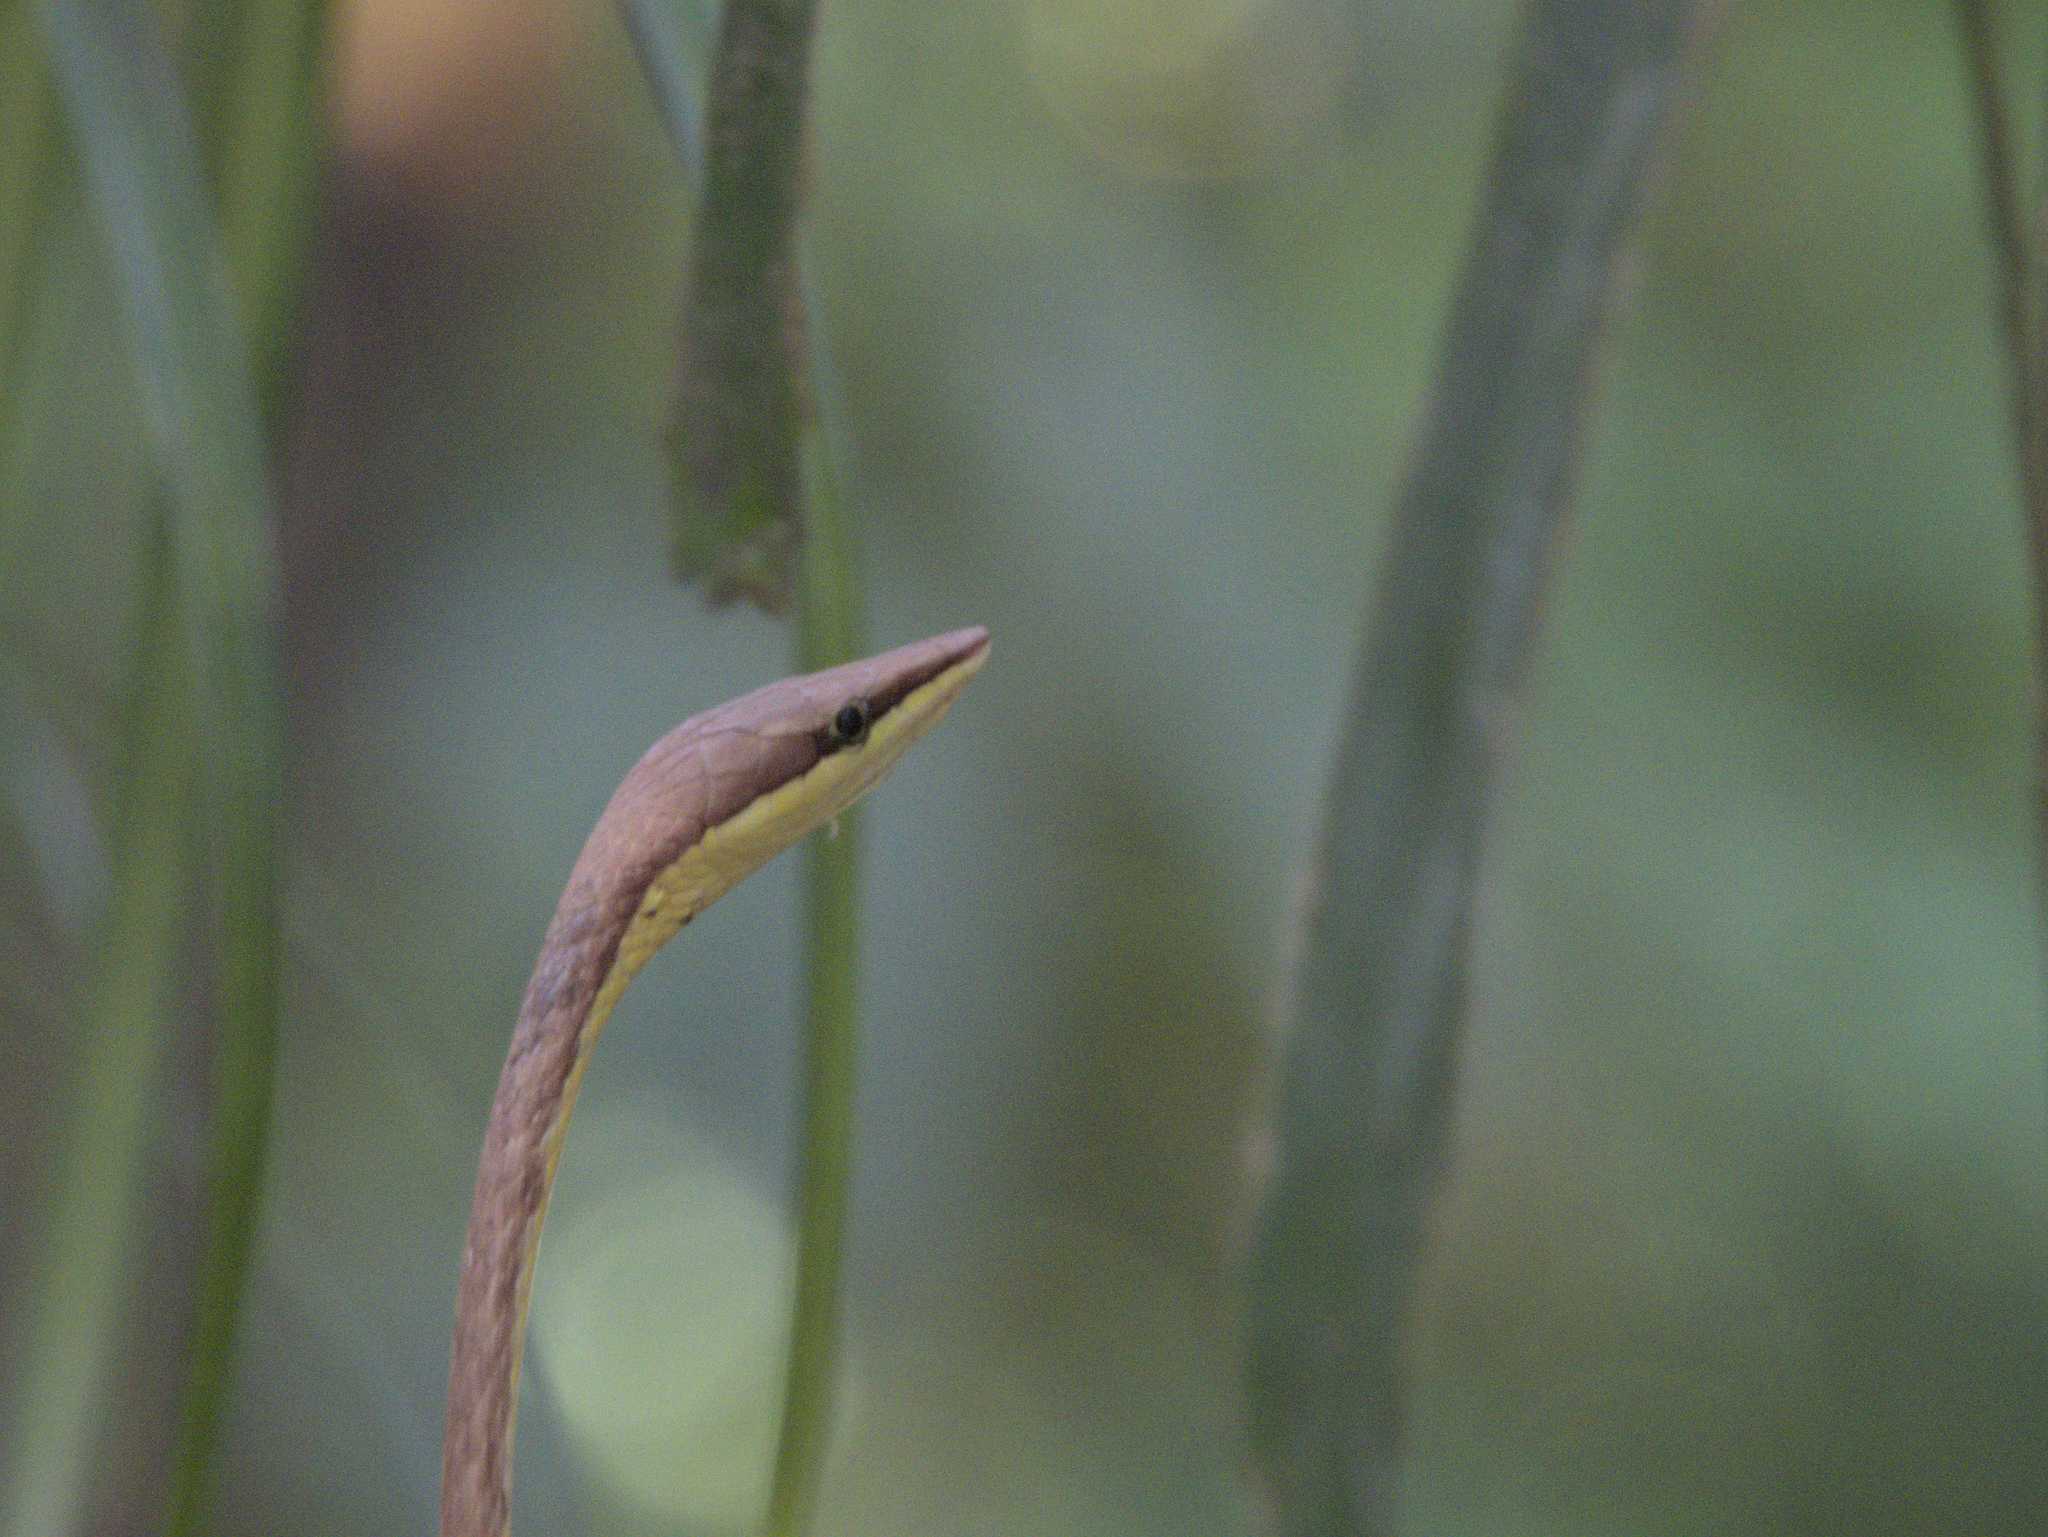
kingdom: Animalia
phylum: Chordata
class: Squamata
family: Colubridae
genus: Oxybelis
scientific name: Oxybelis koehleri
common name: Köhler’s vine snake
